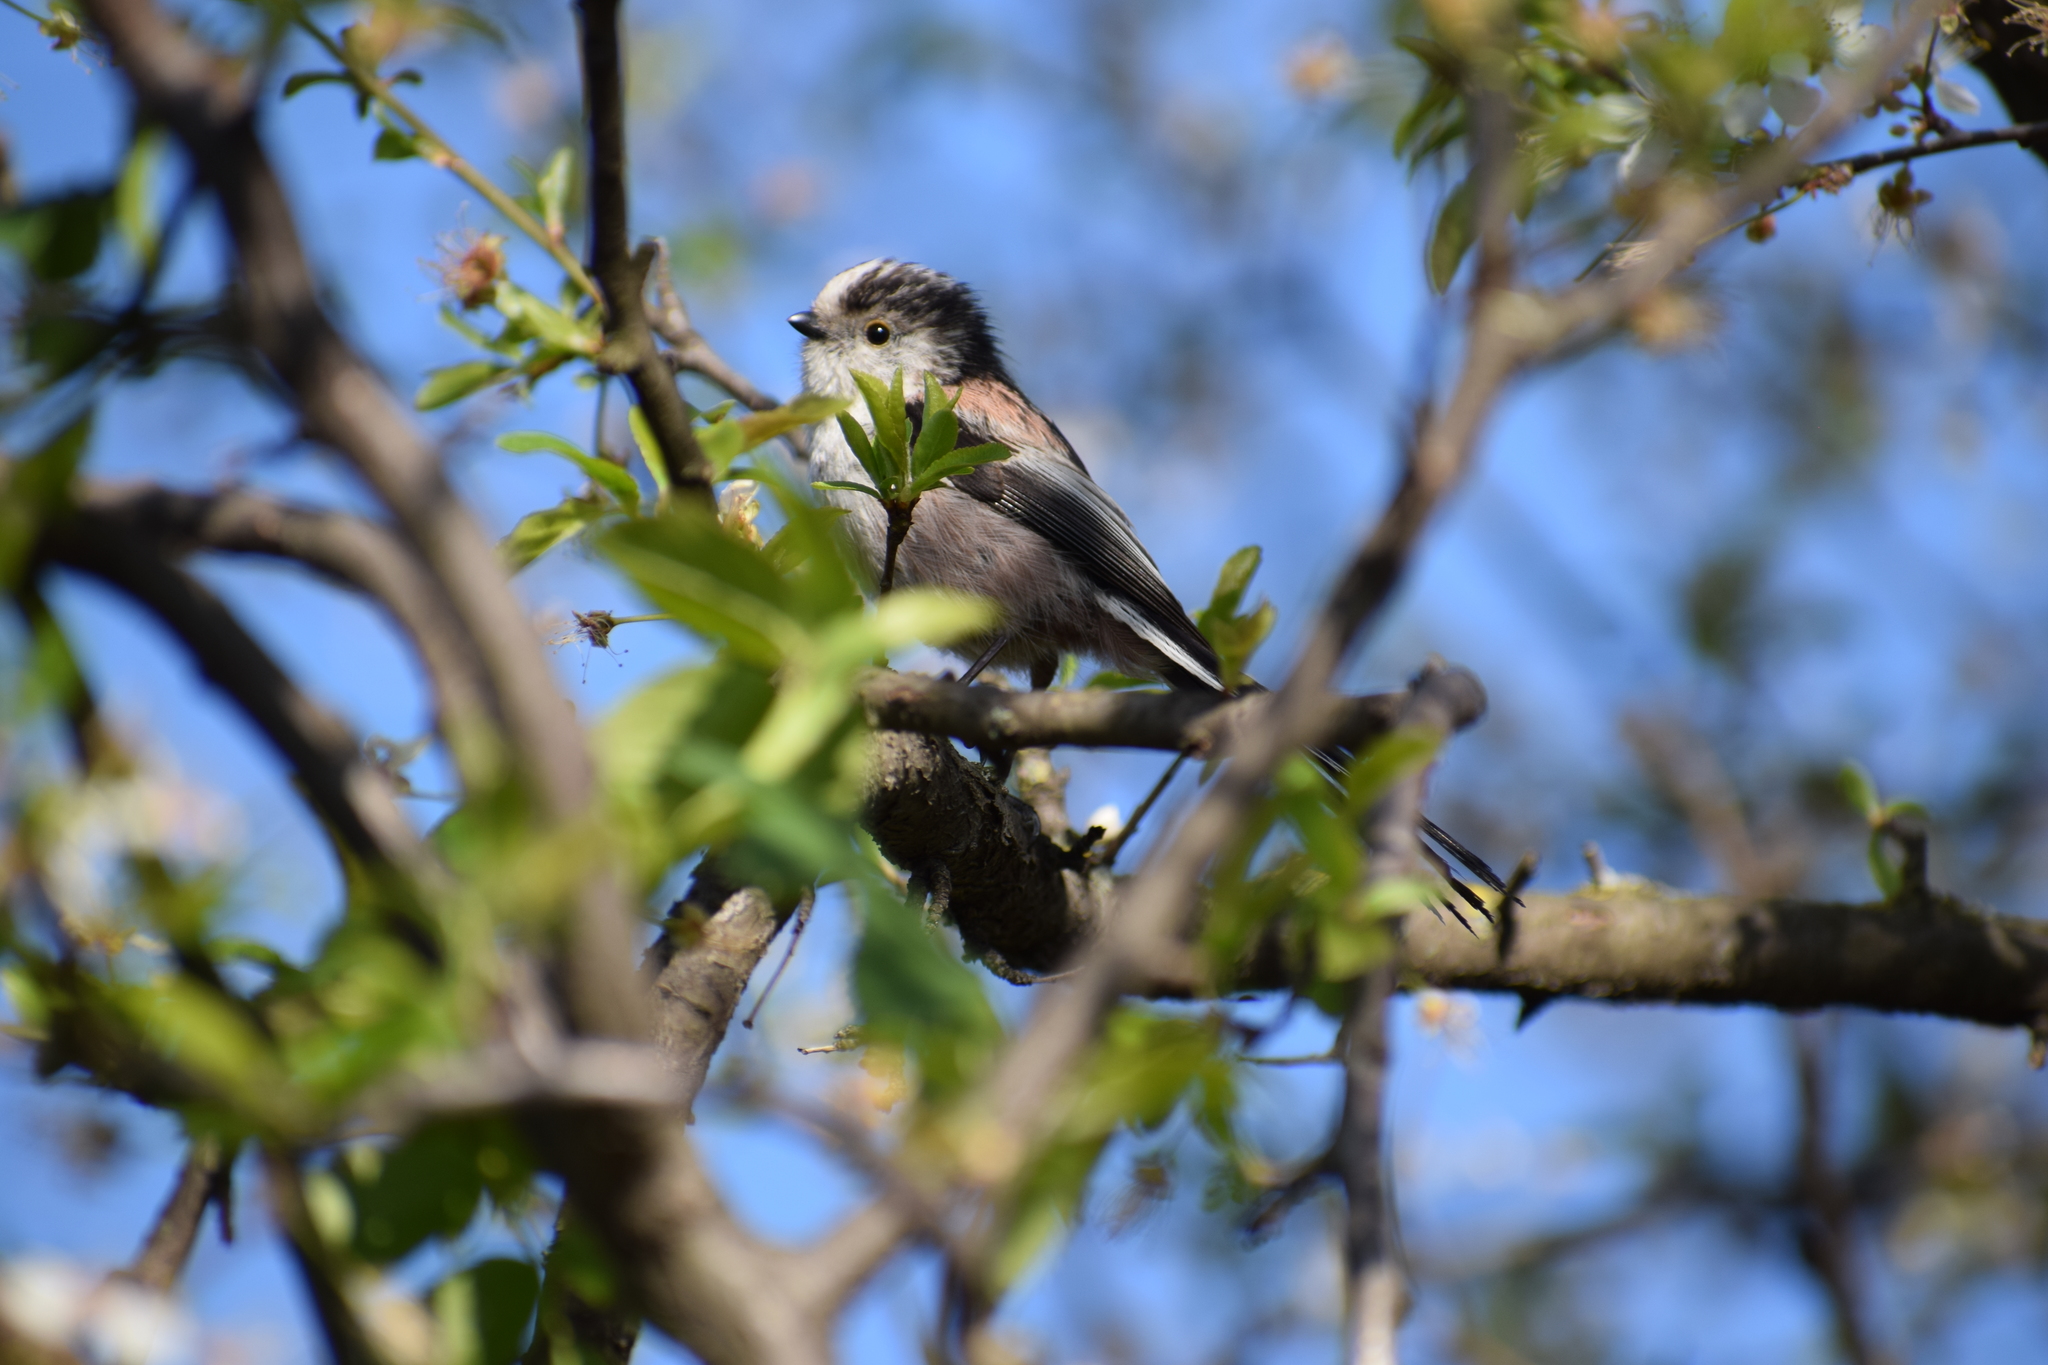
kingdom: Animalia
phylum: Chordata
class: Aves
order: Passeriformes
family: Aegithalidae
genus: Aegithalos
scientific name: Aegithalos caudatus
